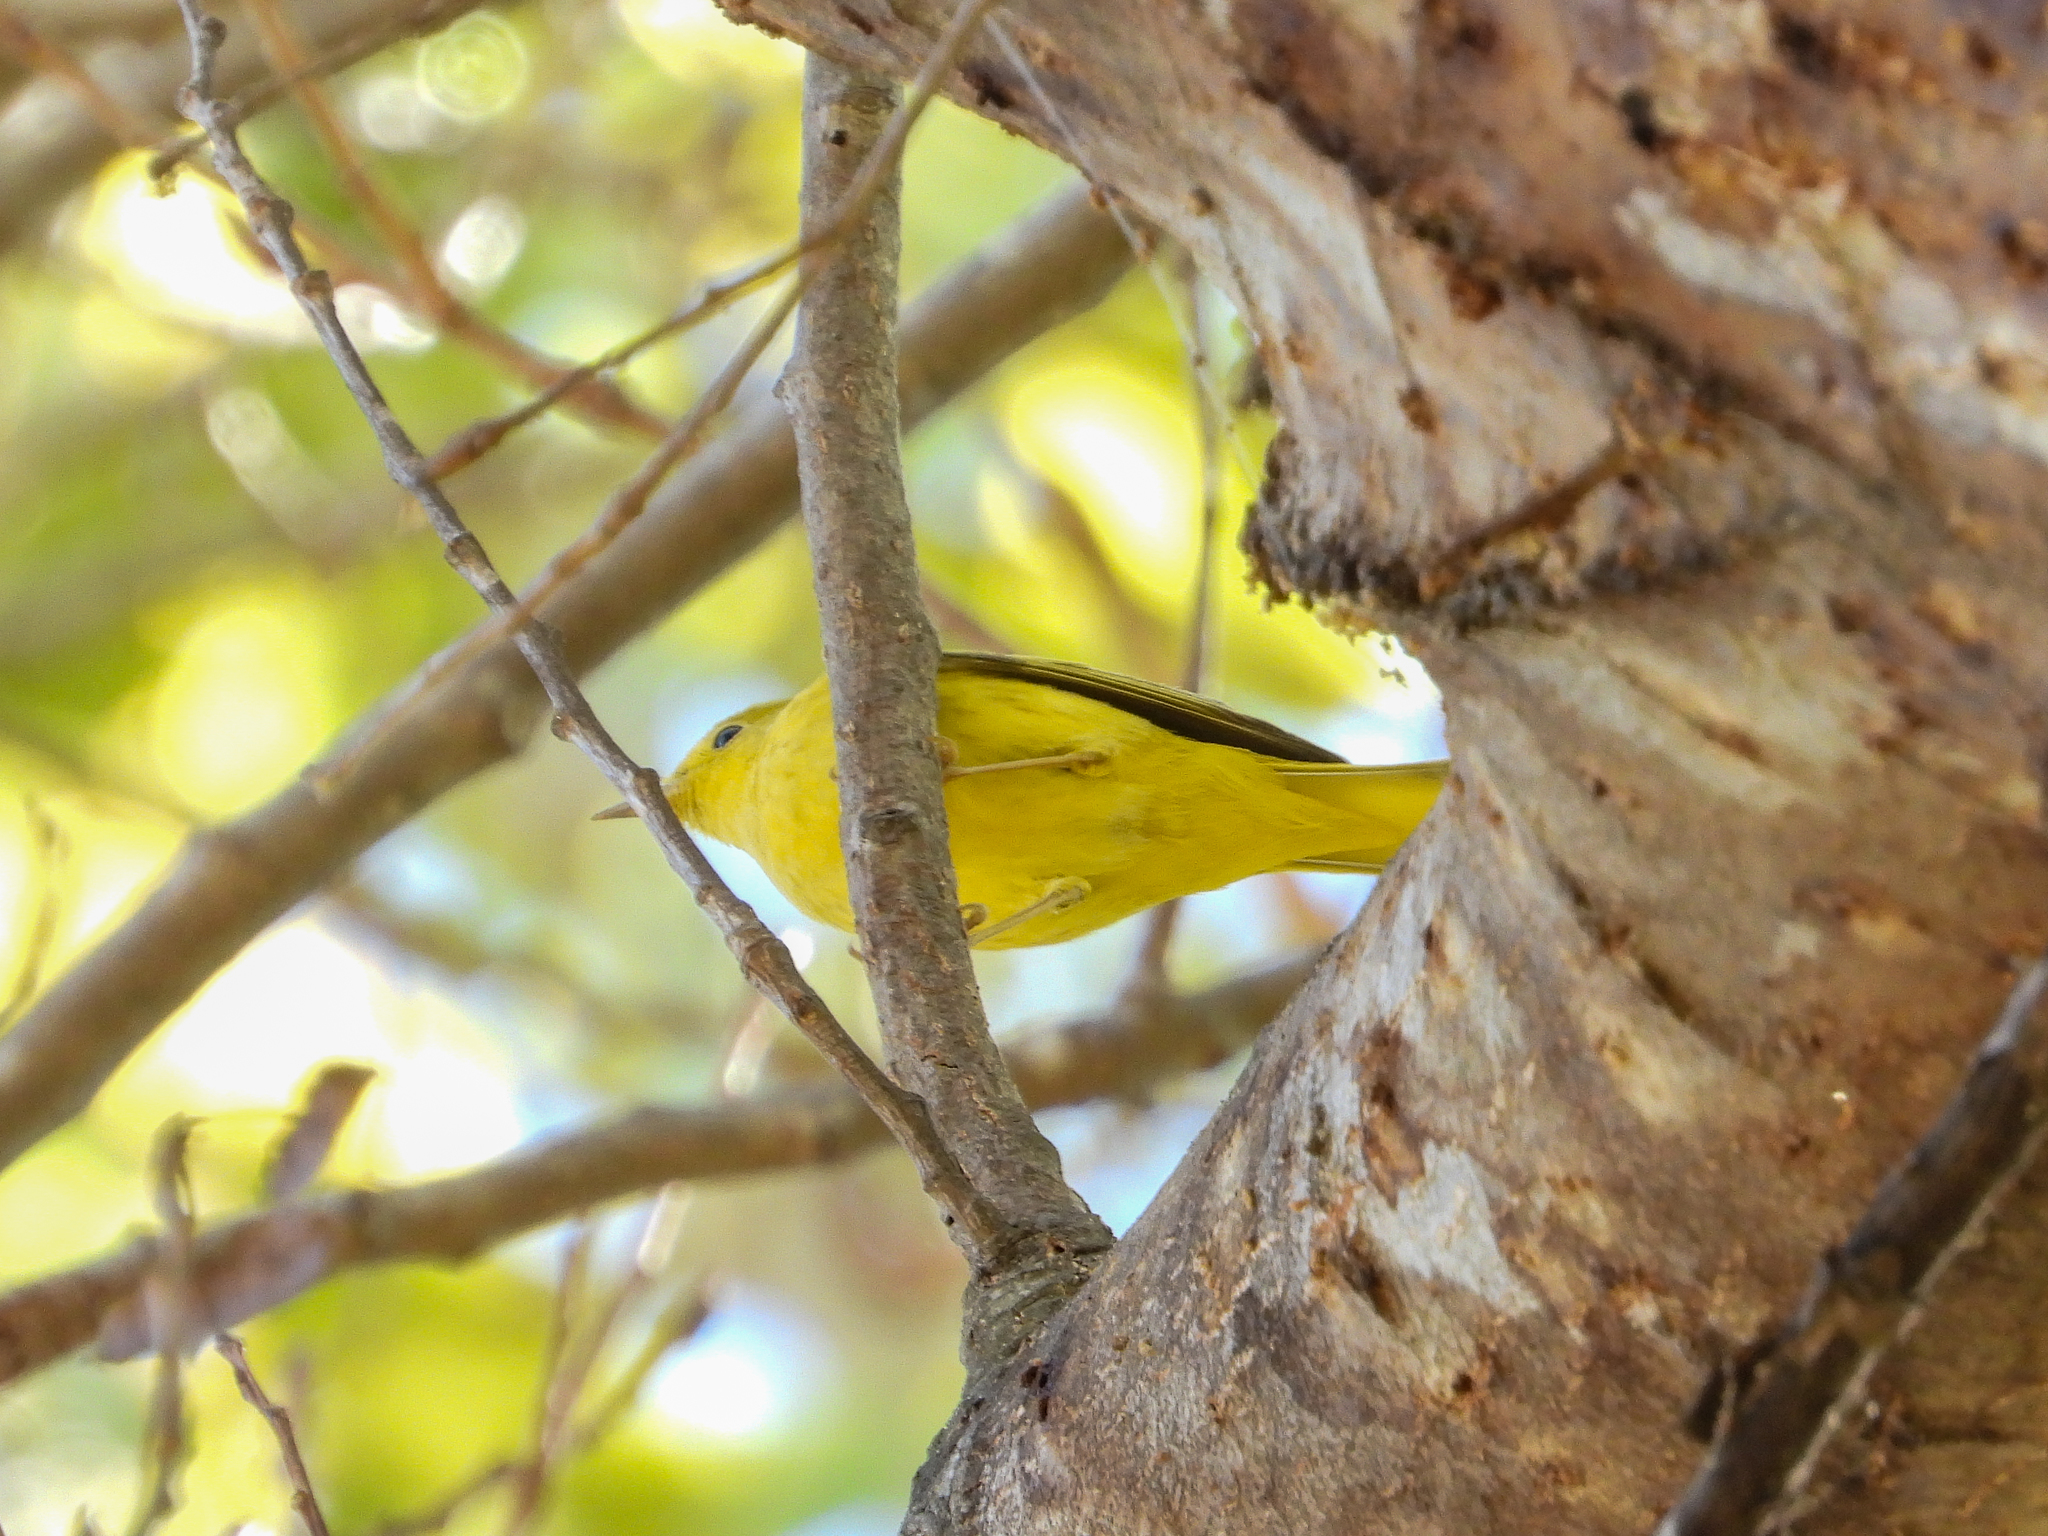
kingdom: Animalia
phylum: Chordata
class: Aves
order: Passeriformes
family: Parulidae
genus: Setophaga
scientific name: Setophaga petechia
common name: Yellow warbler
